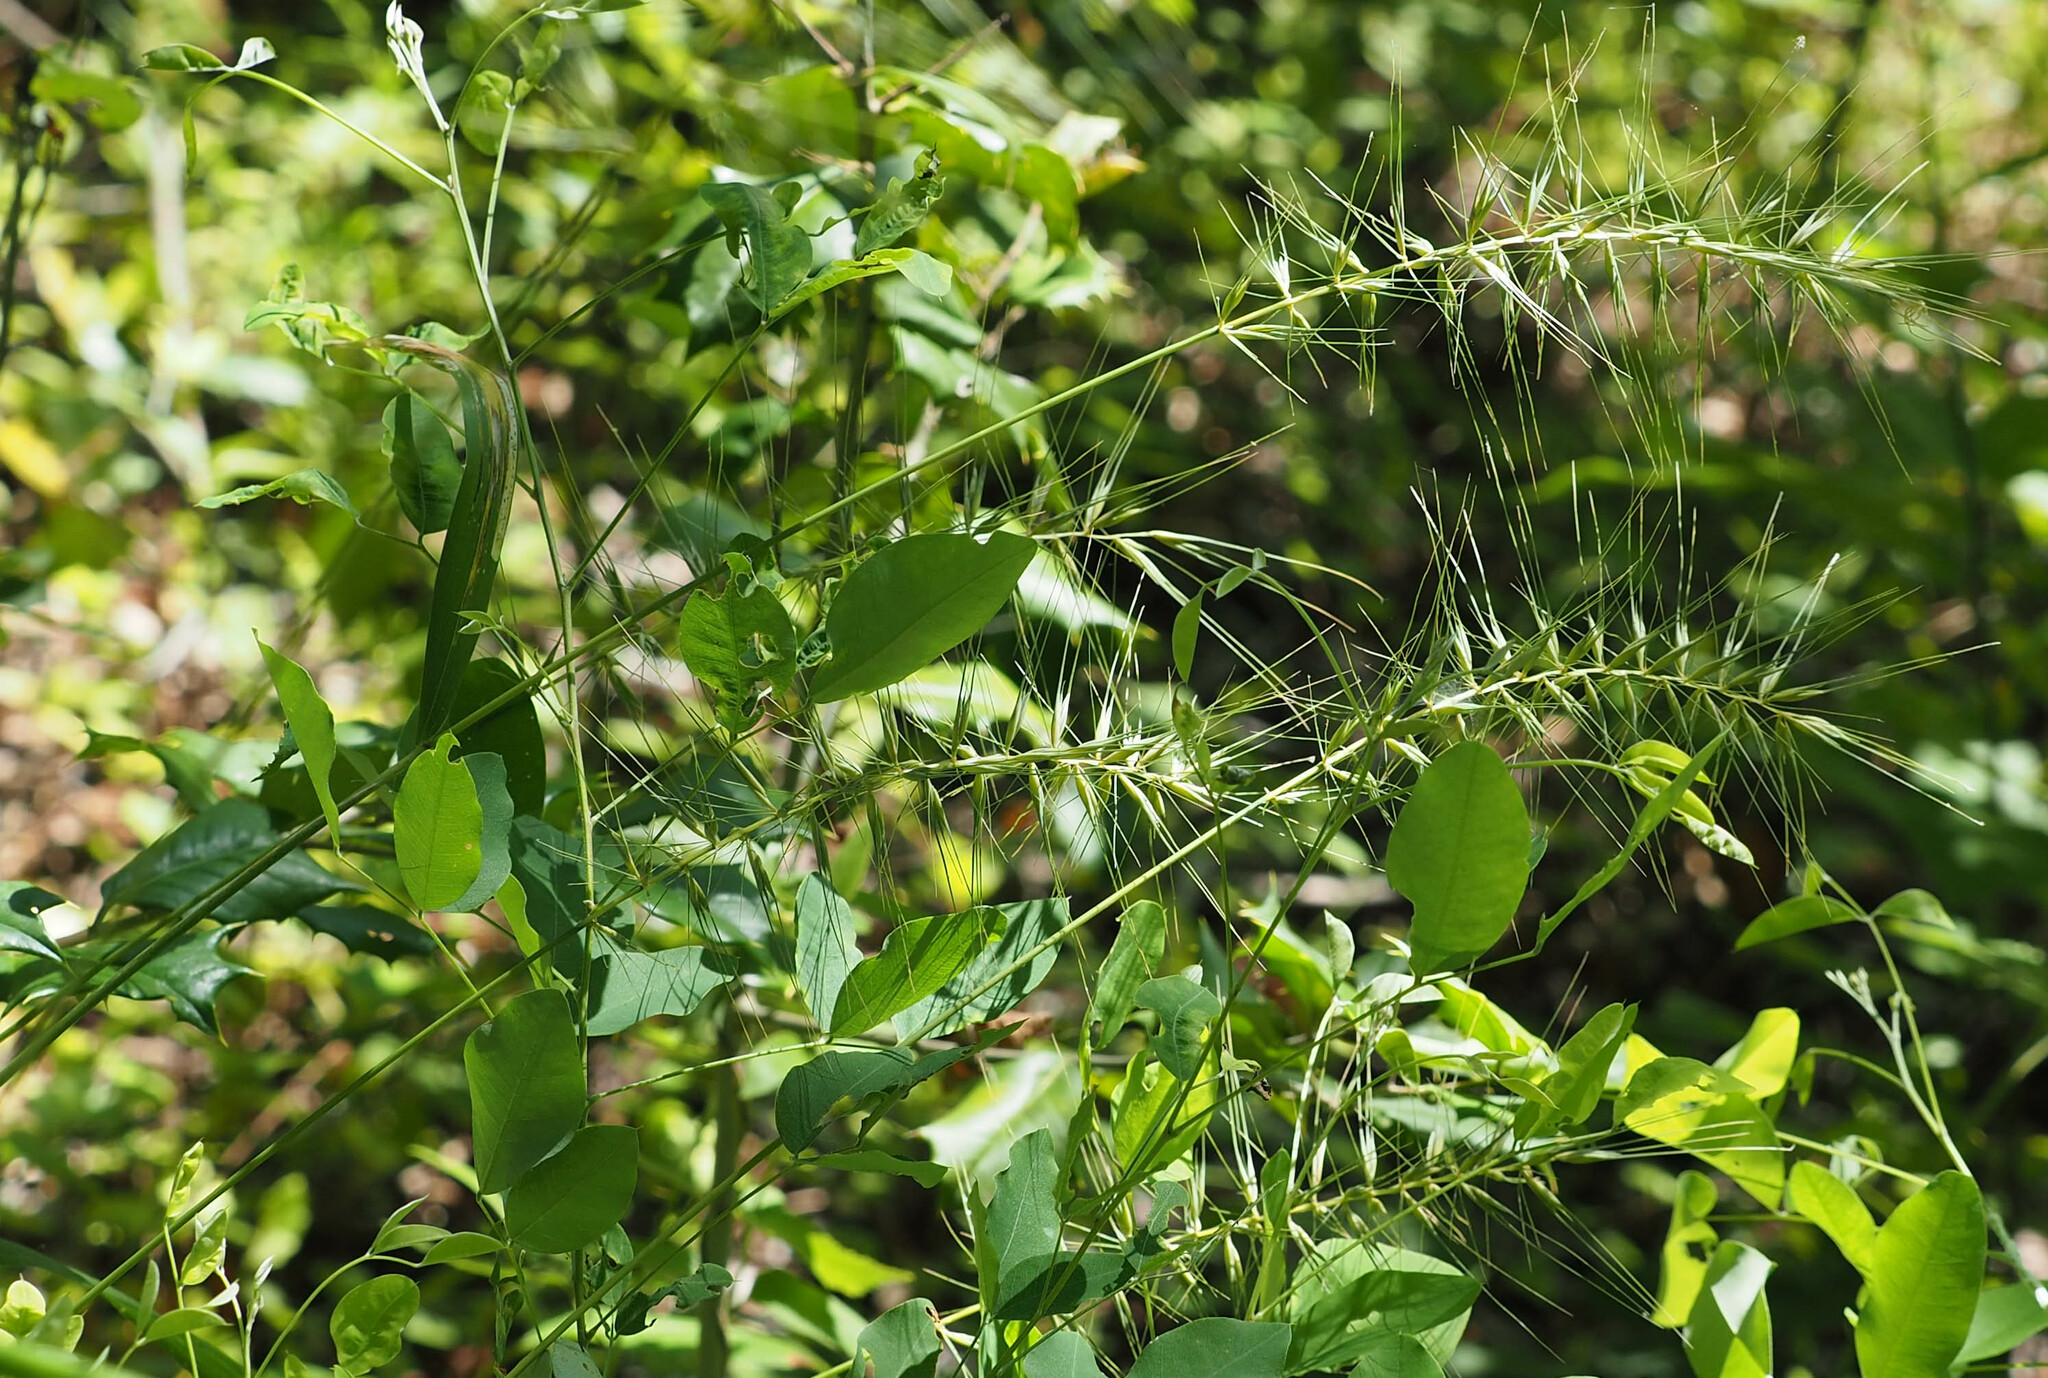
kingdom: Plantae
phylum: Tracheophyta
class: Liliopsida
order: Poales
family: Poaceae
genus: Elymus
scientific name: Elymus hystrix
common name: Bottlebrush grass
